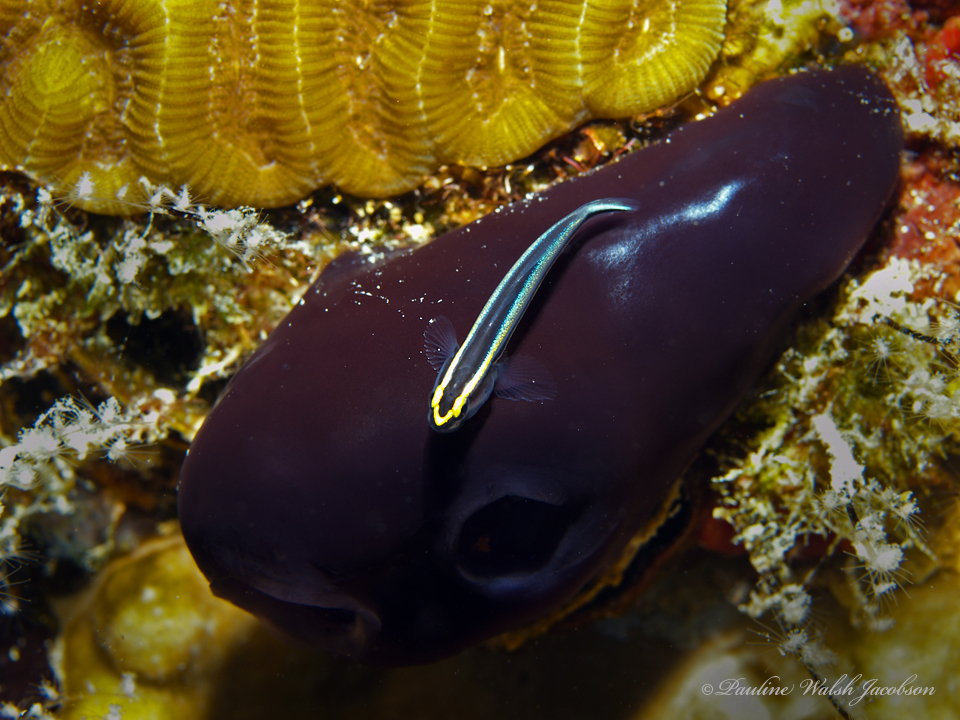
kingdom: Animalia
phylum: Chordata
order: Perciformes
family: Gobiidae
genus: Elacatinus
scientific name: Elacatinus evelynae
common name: Sharknose goby
